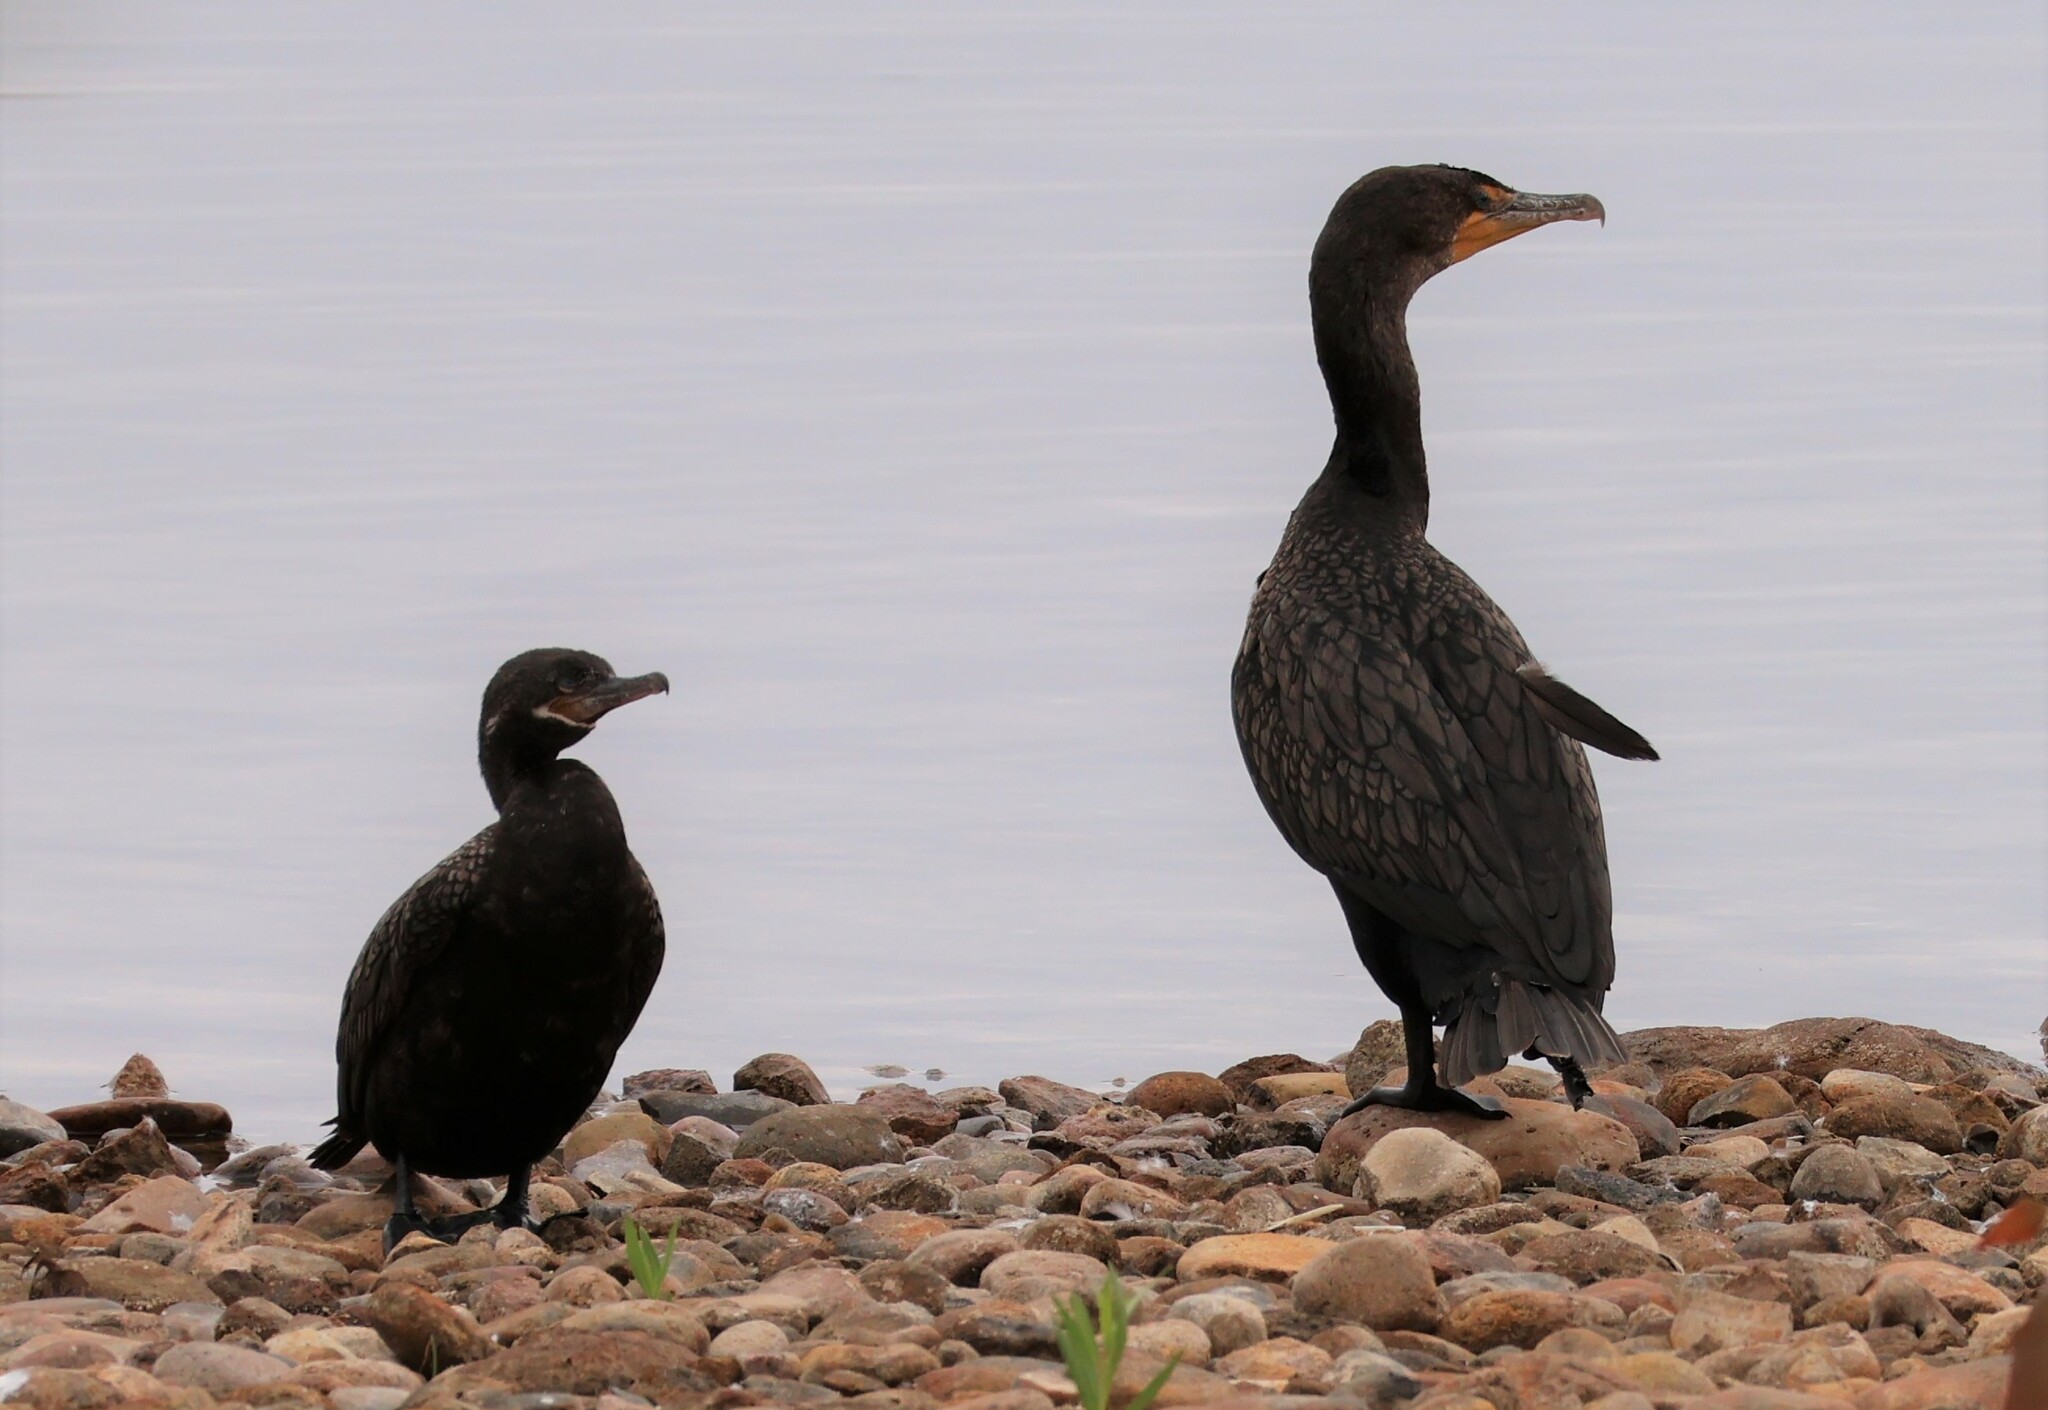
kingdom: Animalia
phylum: Chordata
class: Aves
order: Suliformes
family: Phalacrocoracidae
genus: Phalacrocorax
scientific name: Phalacrocorax auritus
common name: Double-crested cormorant
